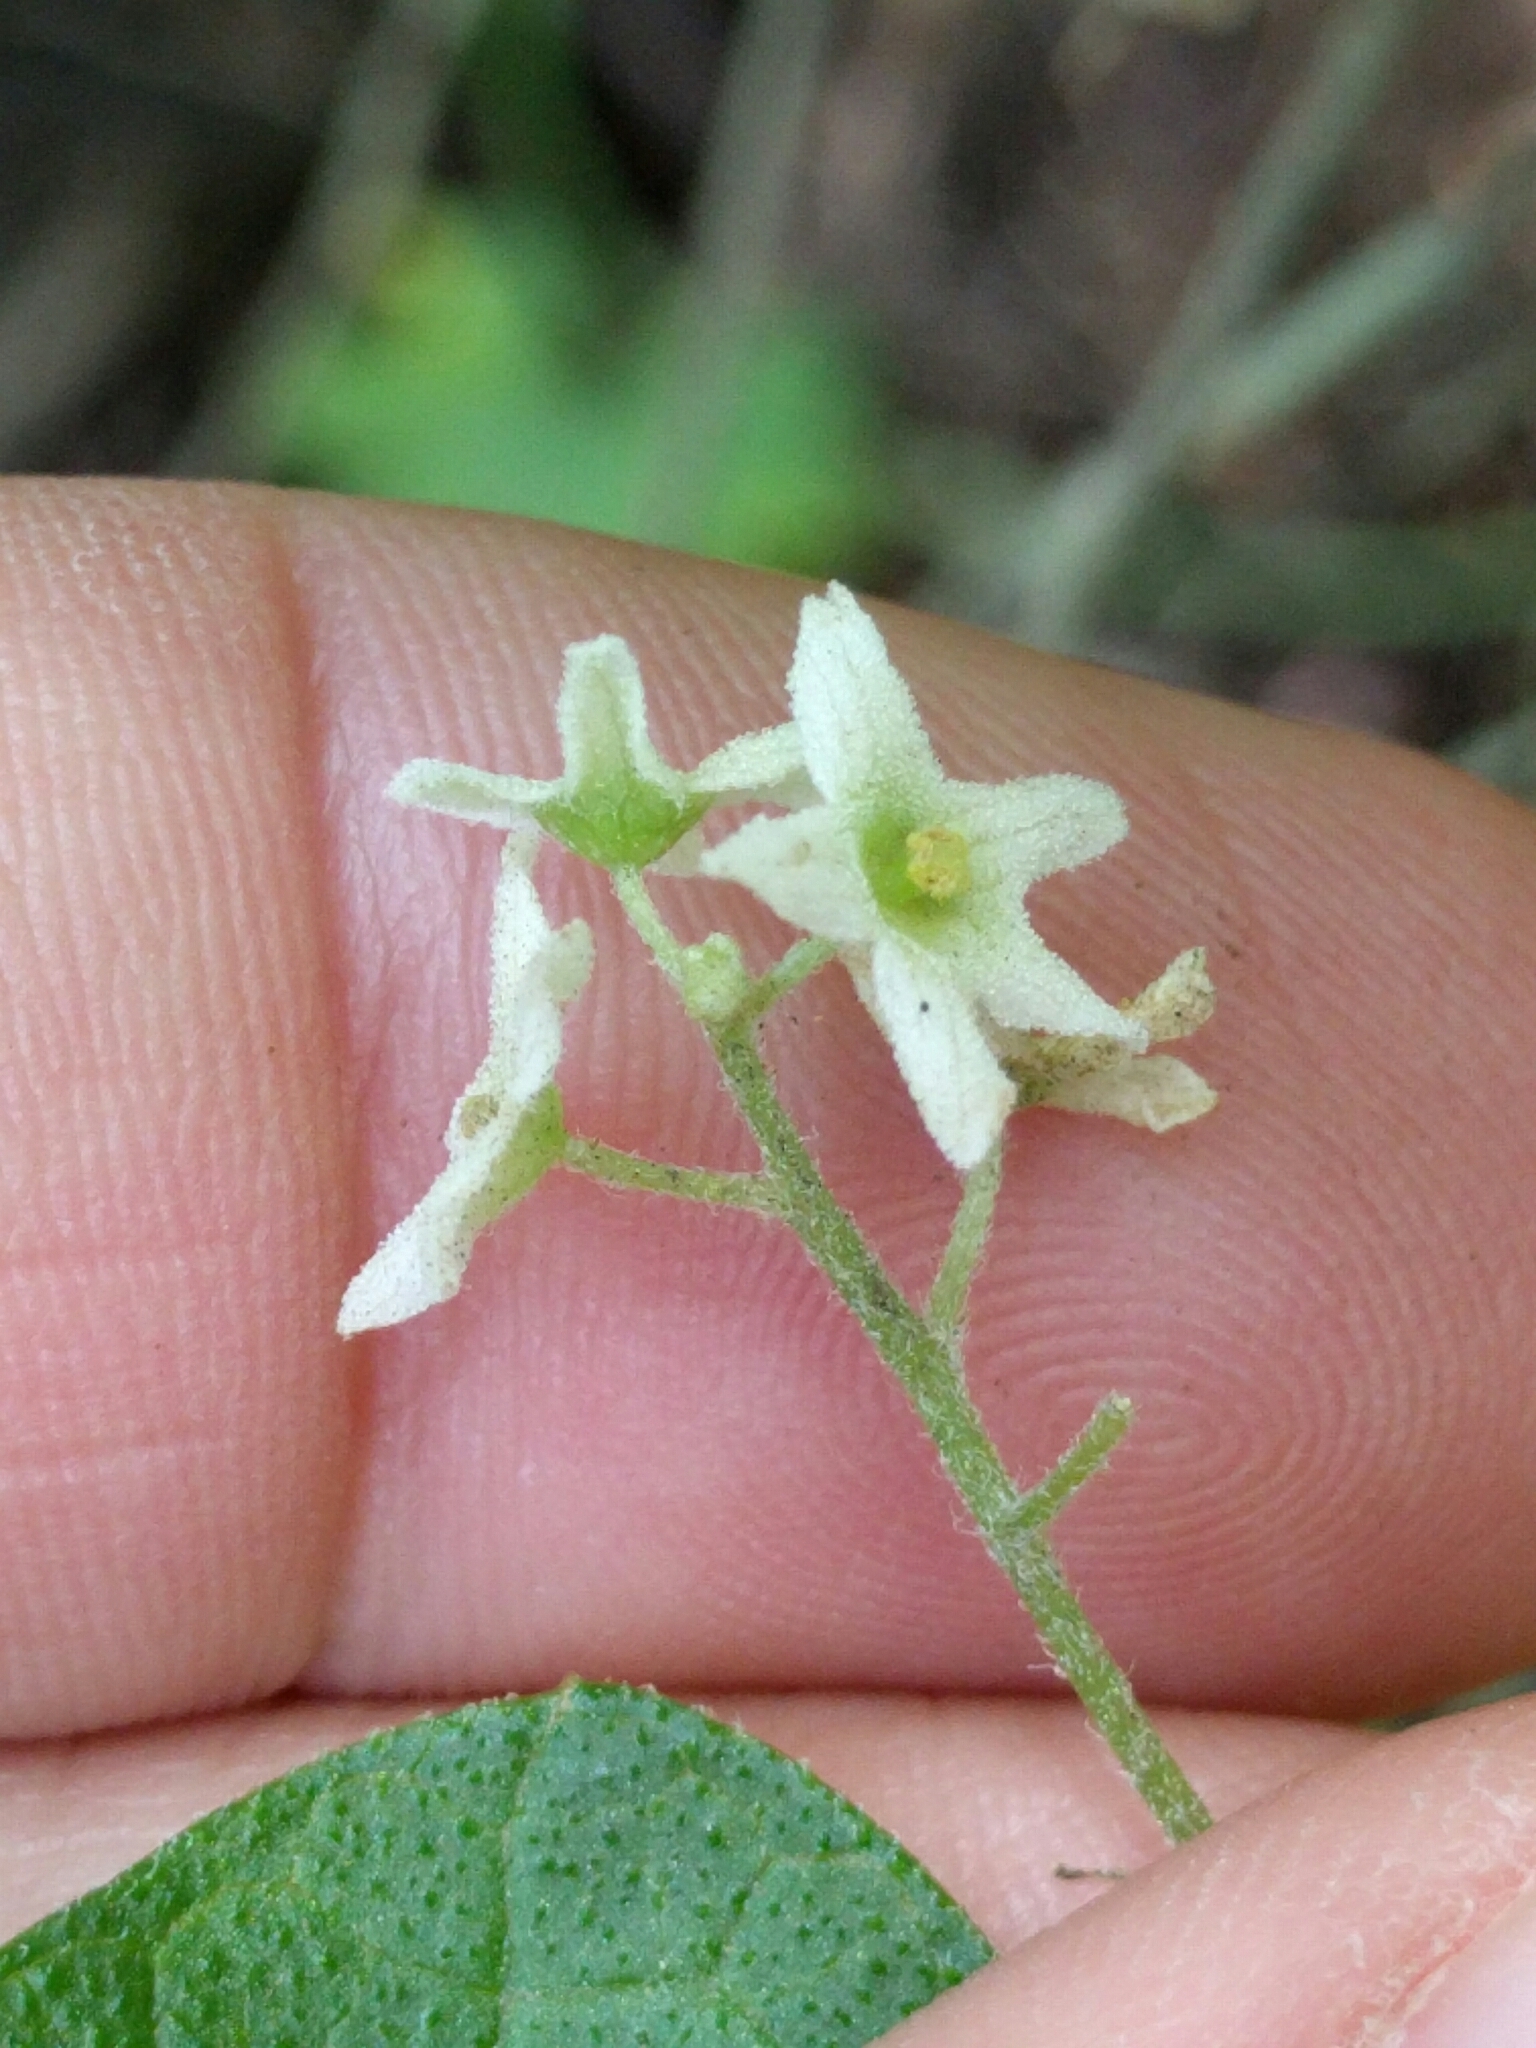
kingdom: Plantae
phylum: Tracheophyta
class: Magnoliopsida
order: Cucurbitales
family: Cucurbitaceae
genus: Marah
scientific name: Marah fabacea
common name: California manroot
